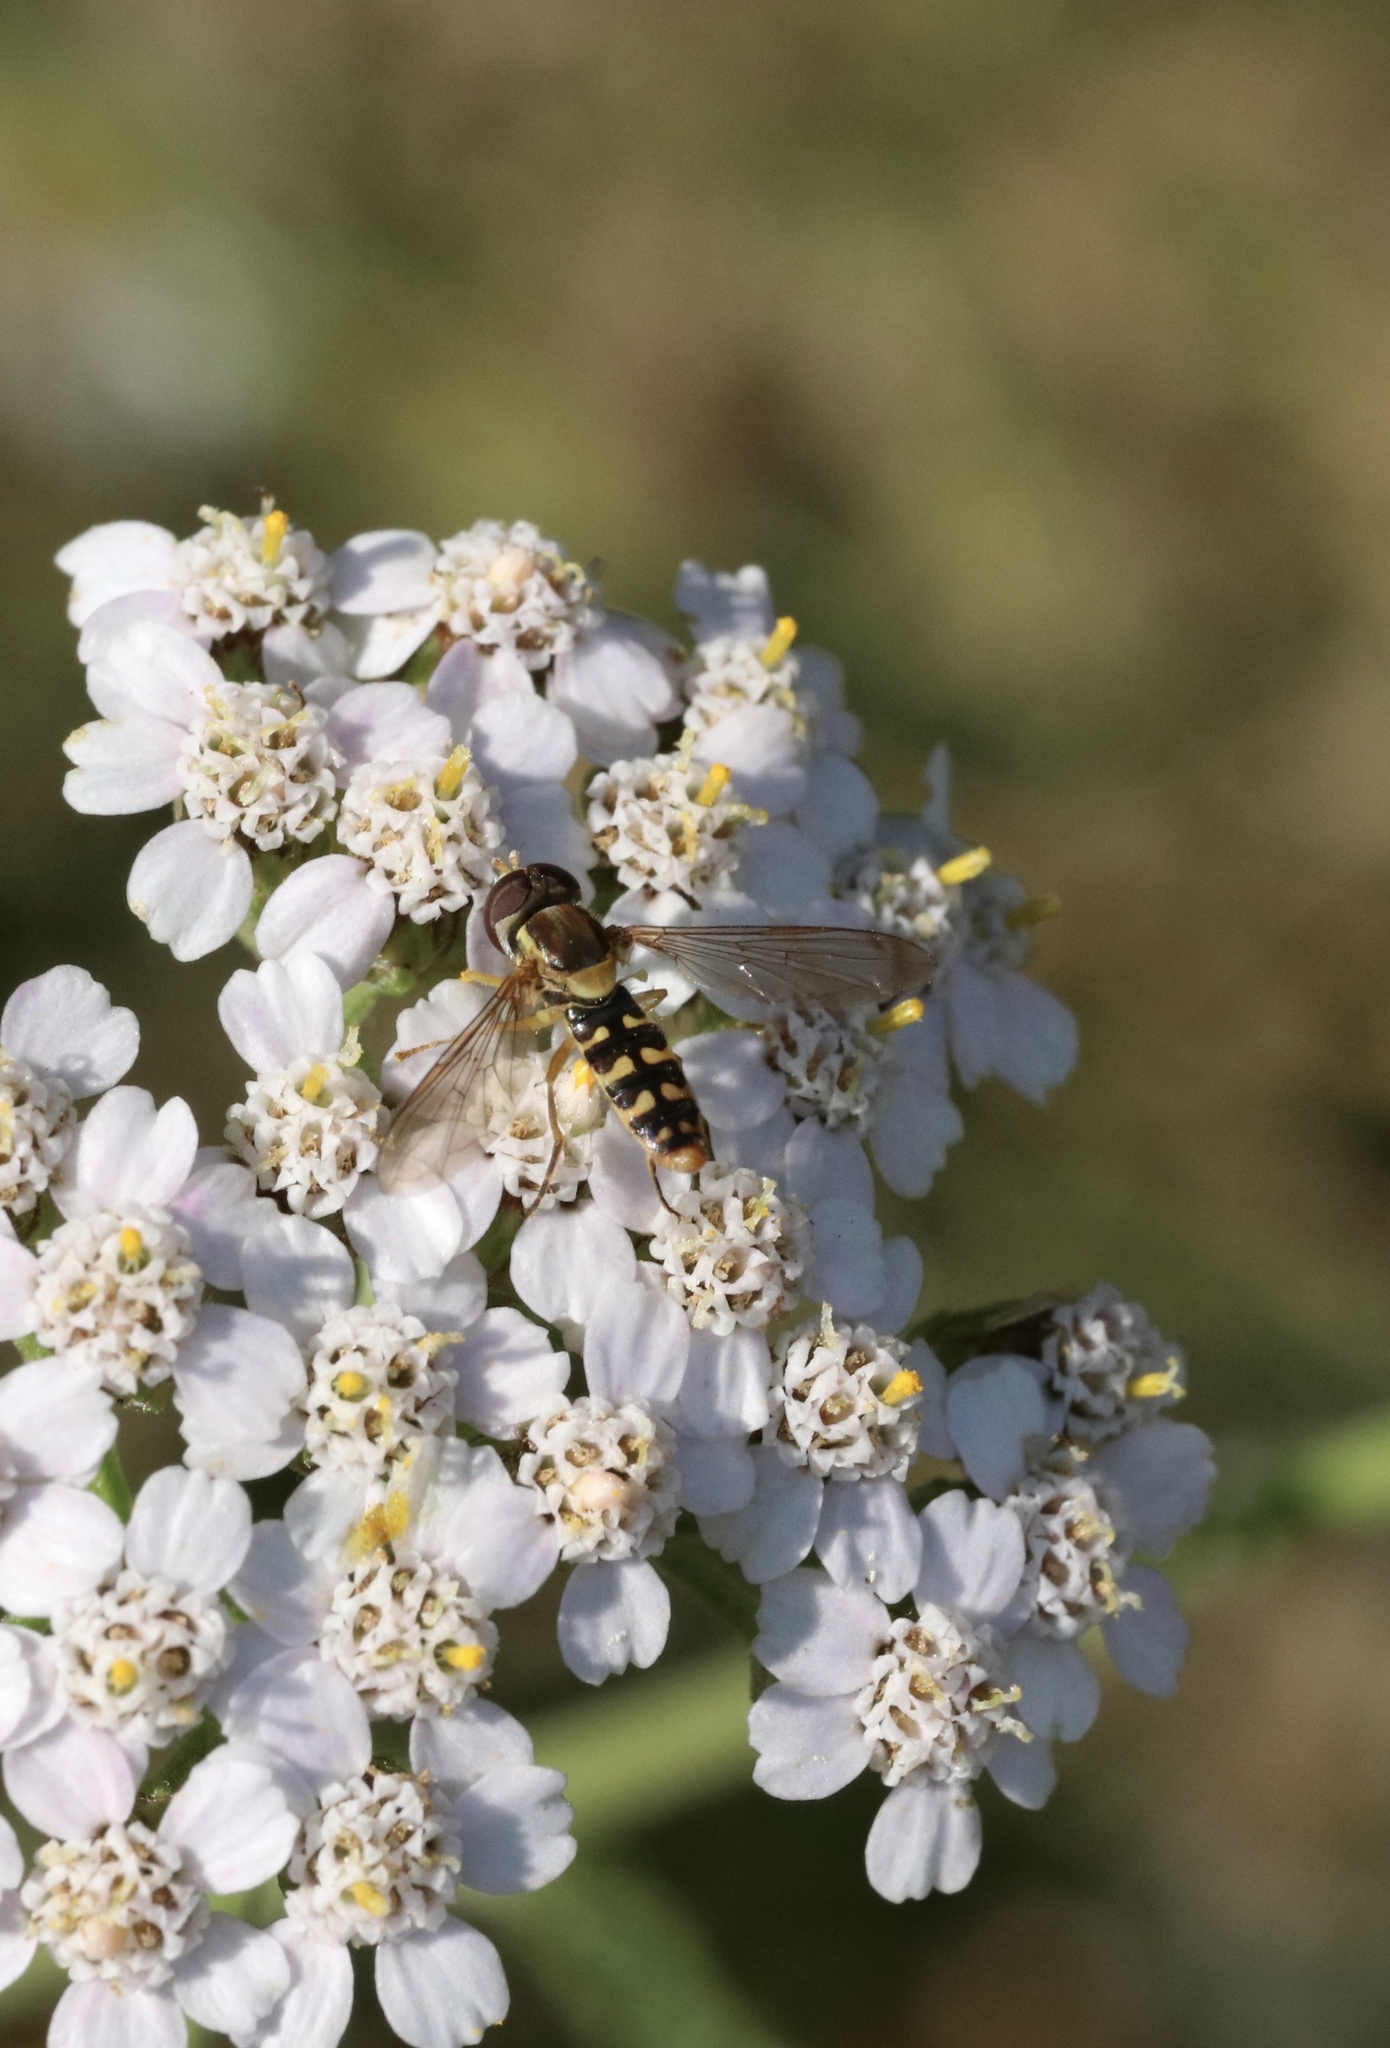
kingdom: Animalia
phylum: Arthropoda
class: Insecta
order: Diptera
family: Syrphidae
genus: Toxomerus
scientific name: Toxomerus vertebratus
